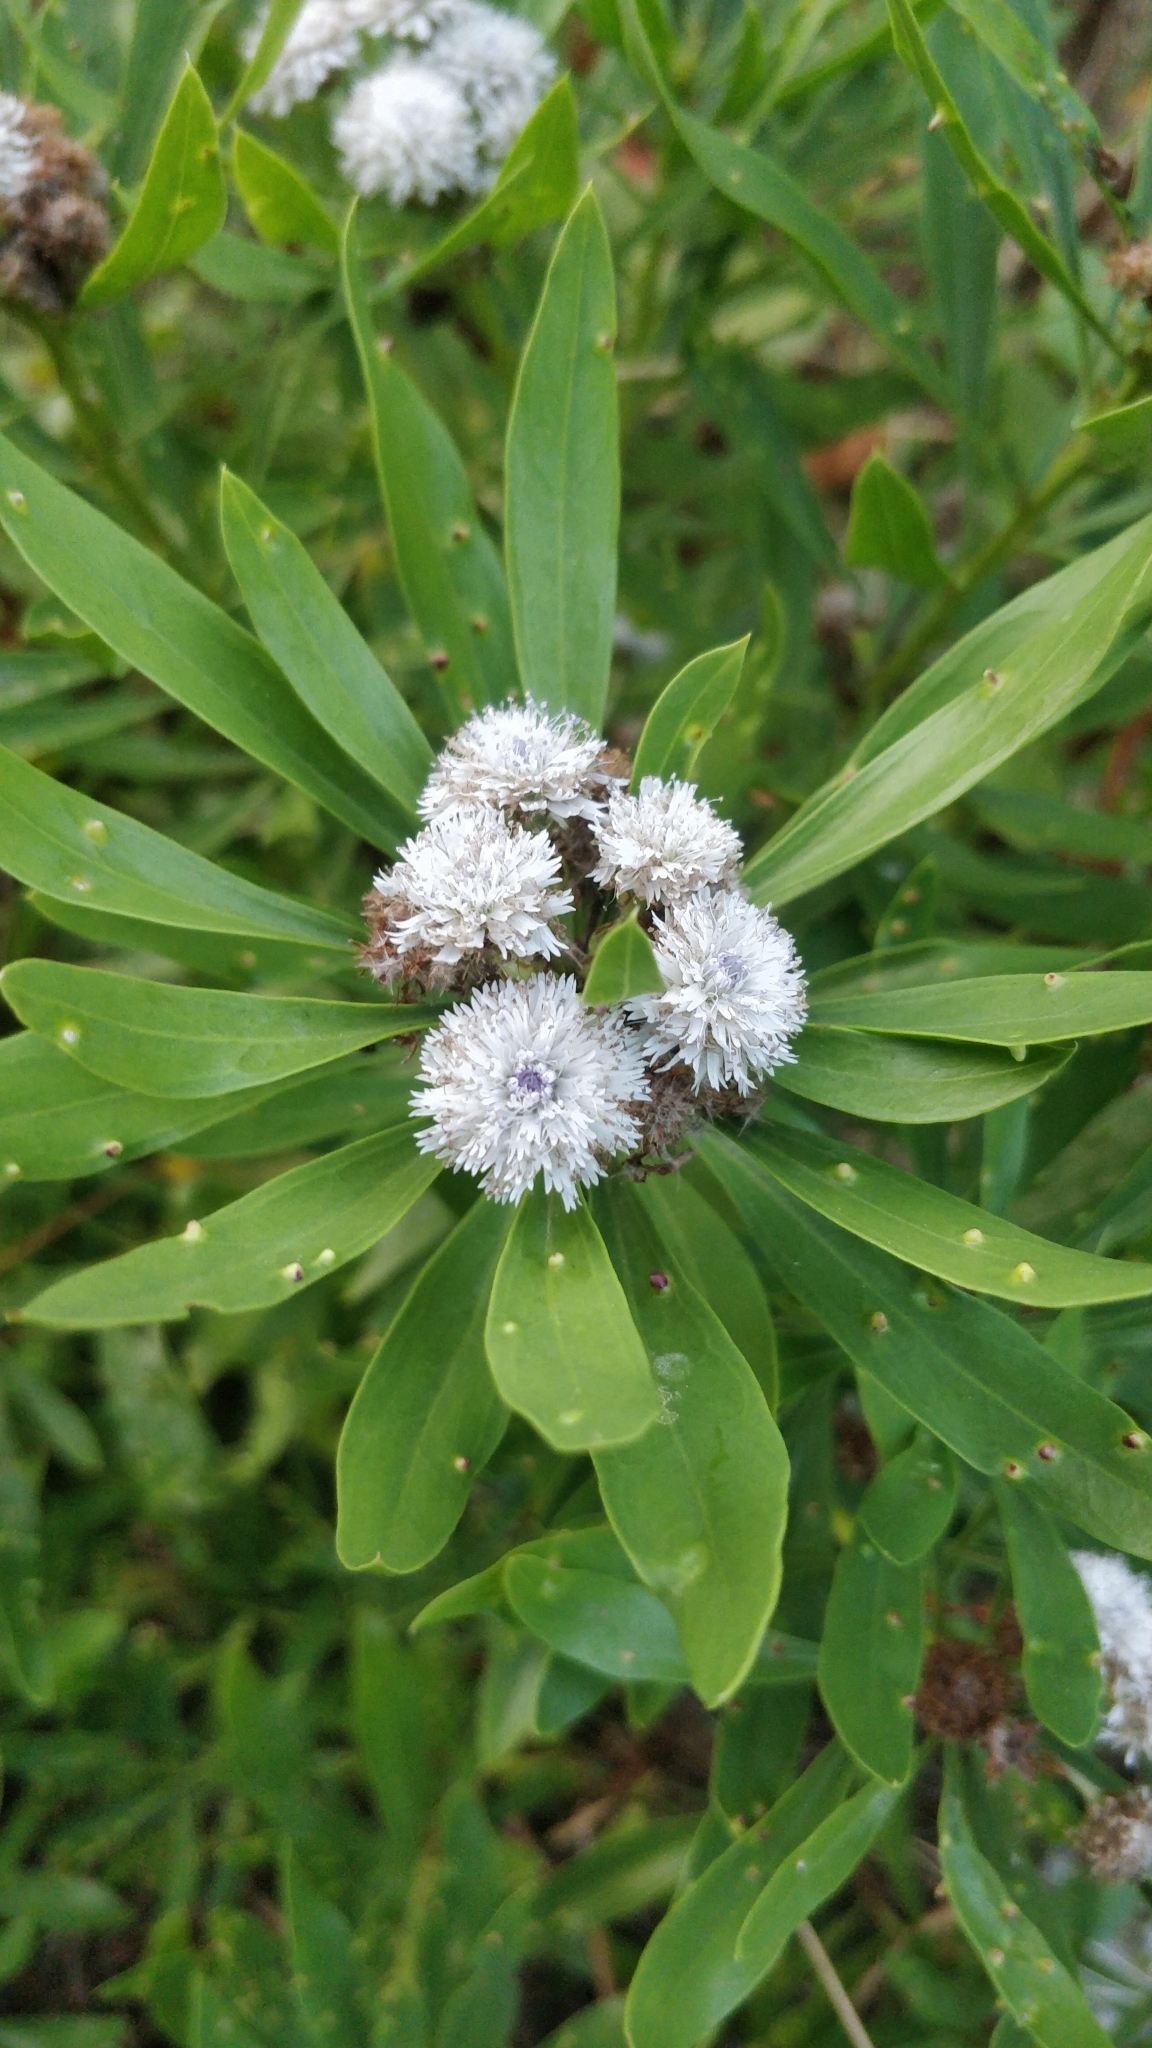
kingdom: Plantae
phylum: Tracheophyta
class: Magnoliopsida
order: Lamiales
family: Plantaginaceae
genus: Globularia
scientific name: Globularia salicina
